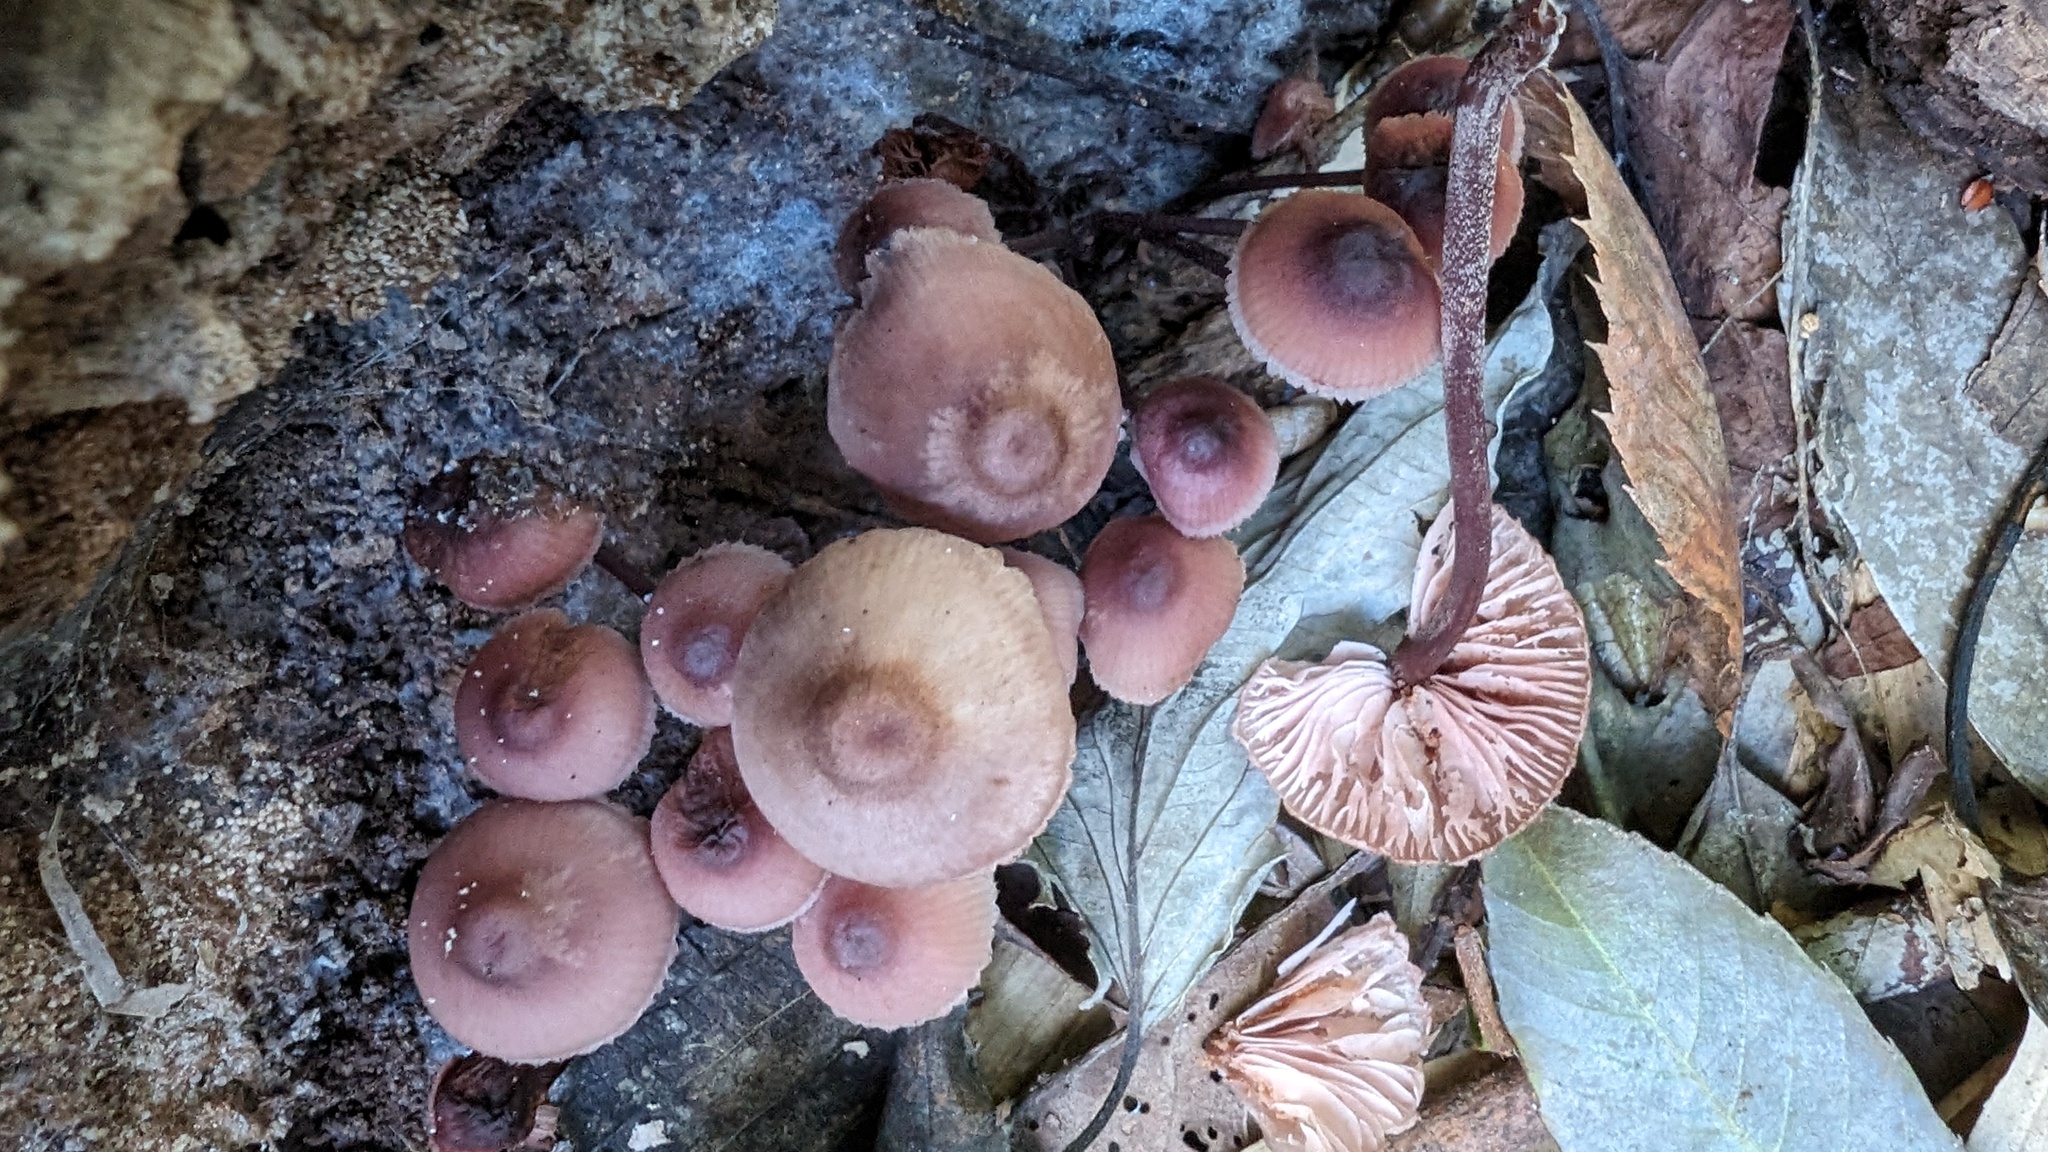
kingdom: Fungi
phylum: Basidiomycota
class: Agaricomycetes
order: Agaricales
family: Mycenaceae
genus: Mycena
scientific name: Mycena haematopus
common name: Burgundydrop bonnet
